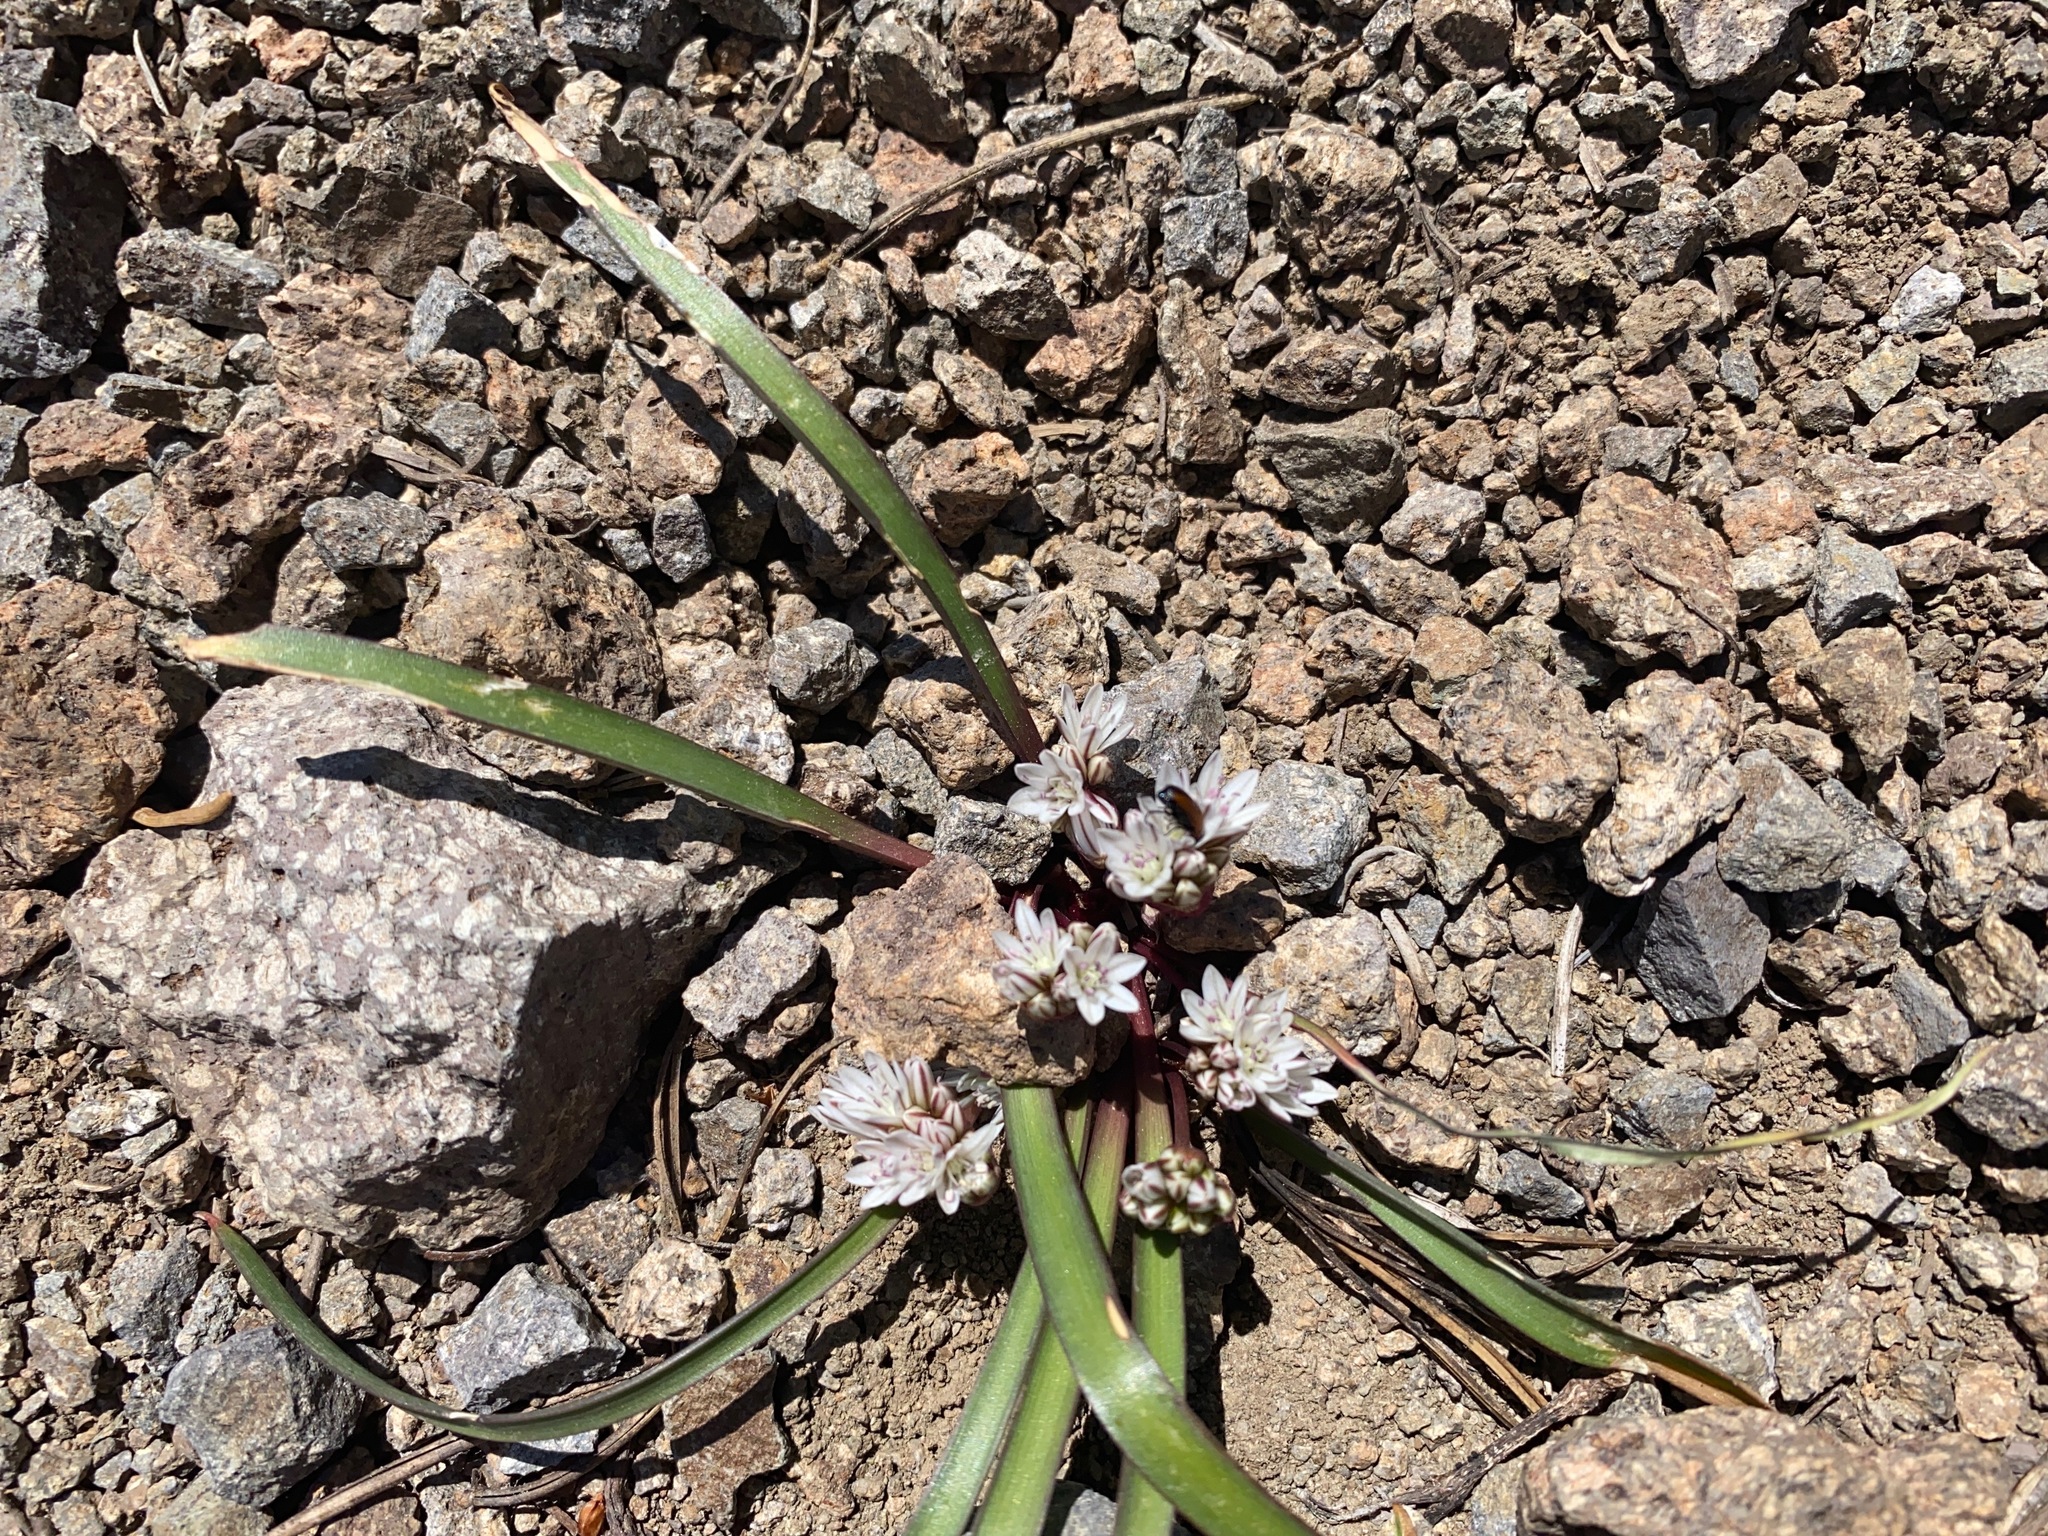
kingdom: Plantae
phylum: Tracheophyta
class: Liliopsida
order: Asparagales
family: Amaryllidaceae
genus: Allium
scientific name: Allium obtusum
